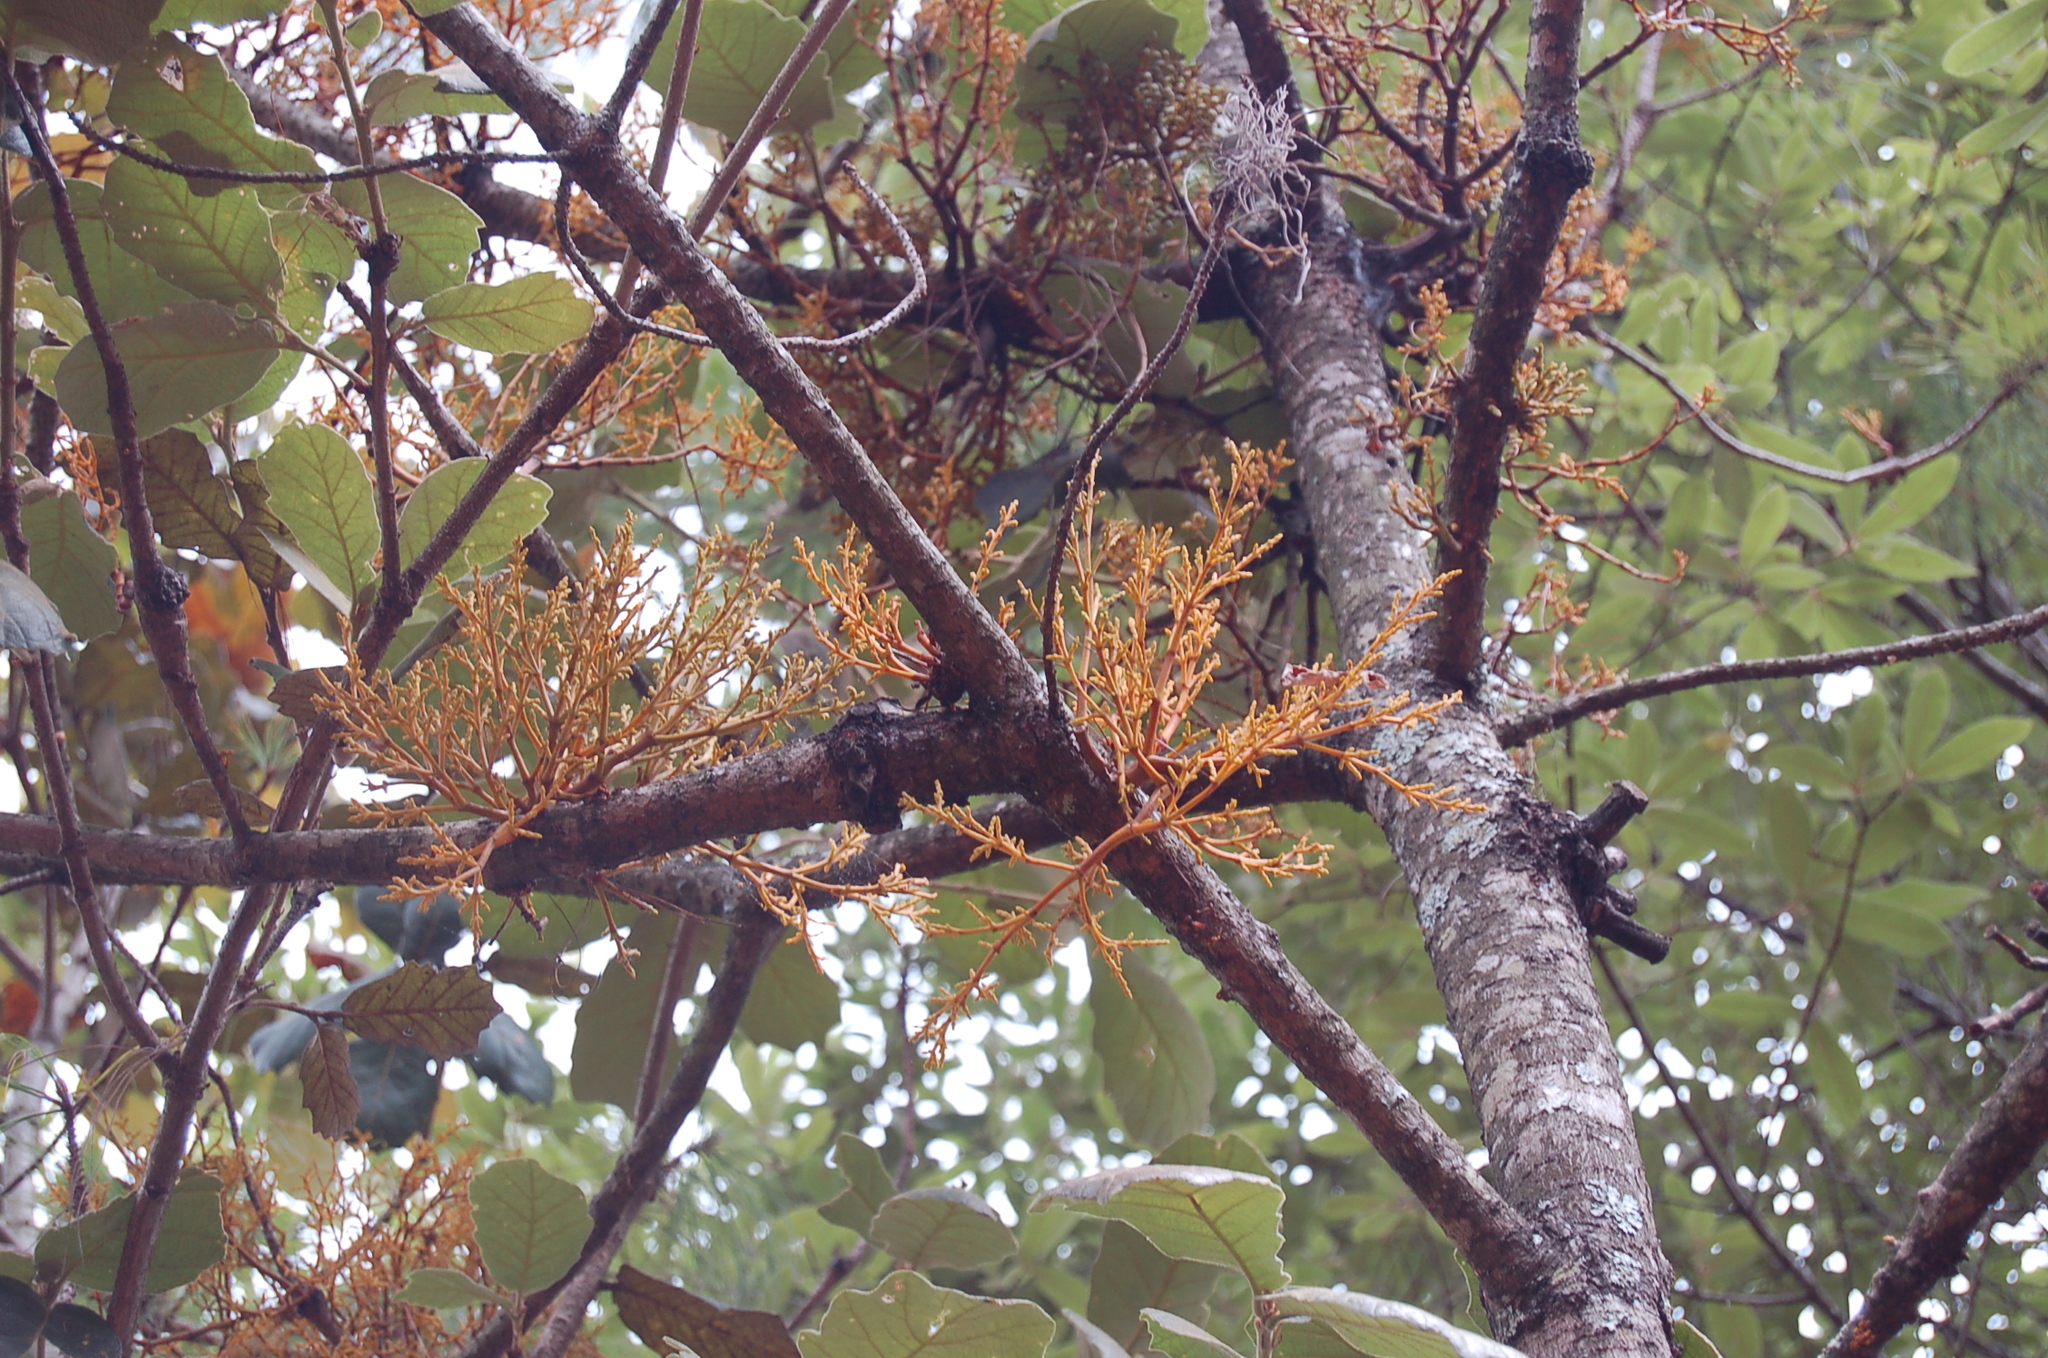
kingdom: Plantae
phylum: Tracheophyta
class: Magnoliopsida
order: Santalales
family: Viscaceae
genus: Arceuthobium
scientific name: Arceuthobium globosum
